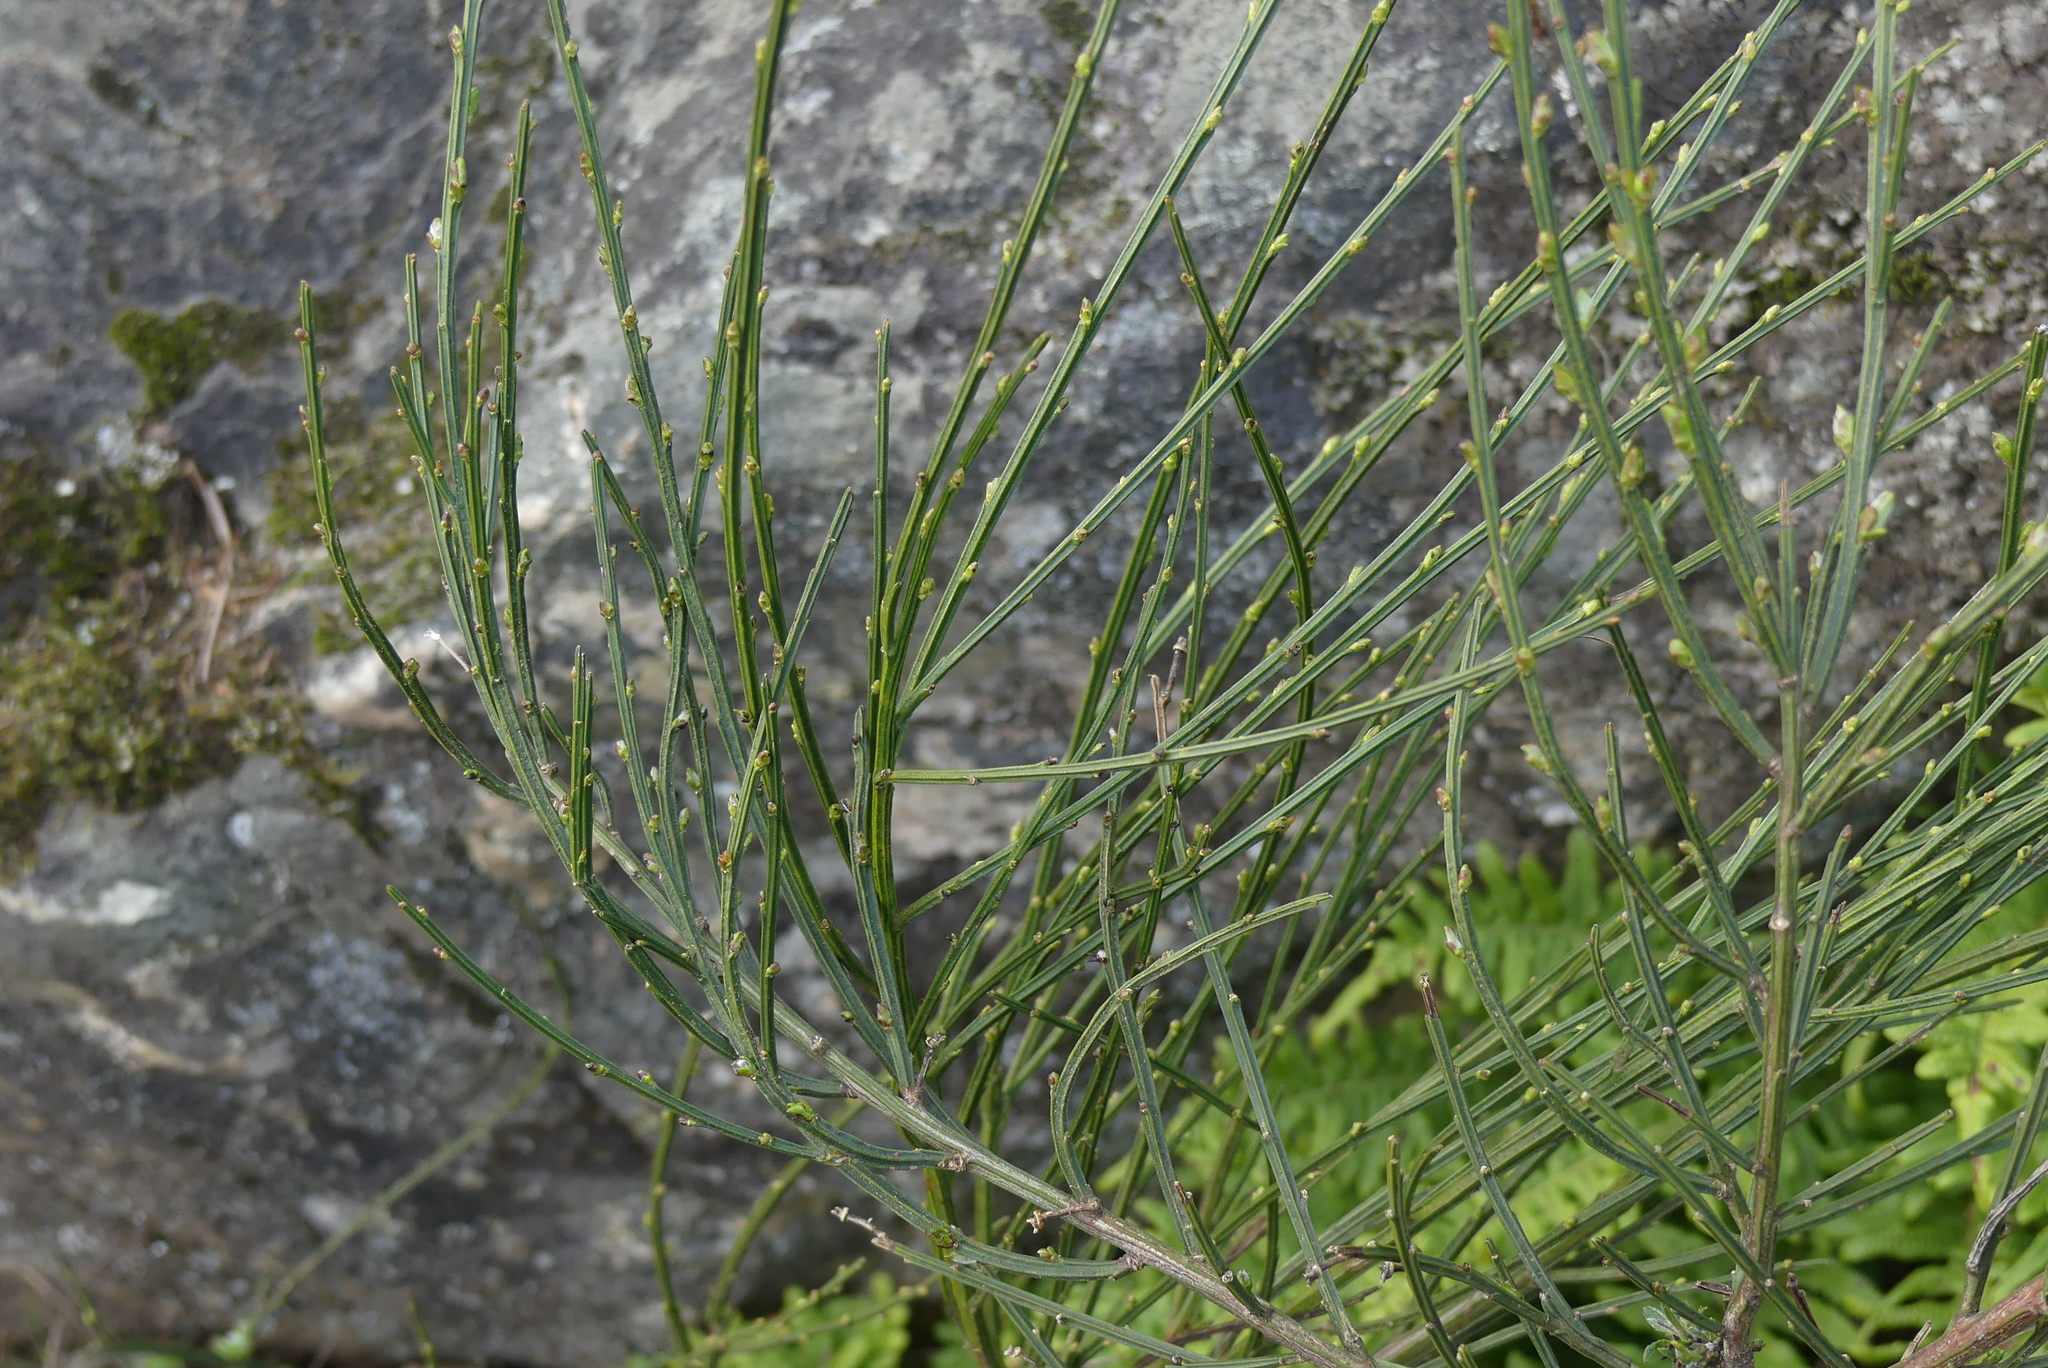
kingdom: Plantae
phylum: Tracheophyta
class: Magnoliopsida
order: Fabales
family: Fabaceae
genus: Cytisus
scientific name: Cytisus scoparius
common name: Scotch broom
